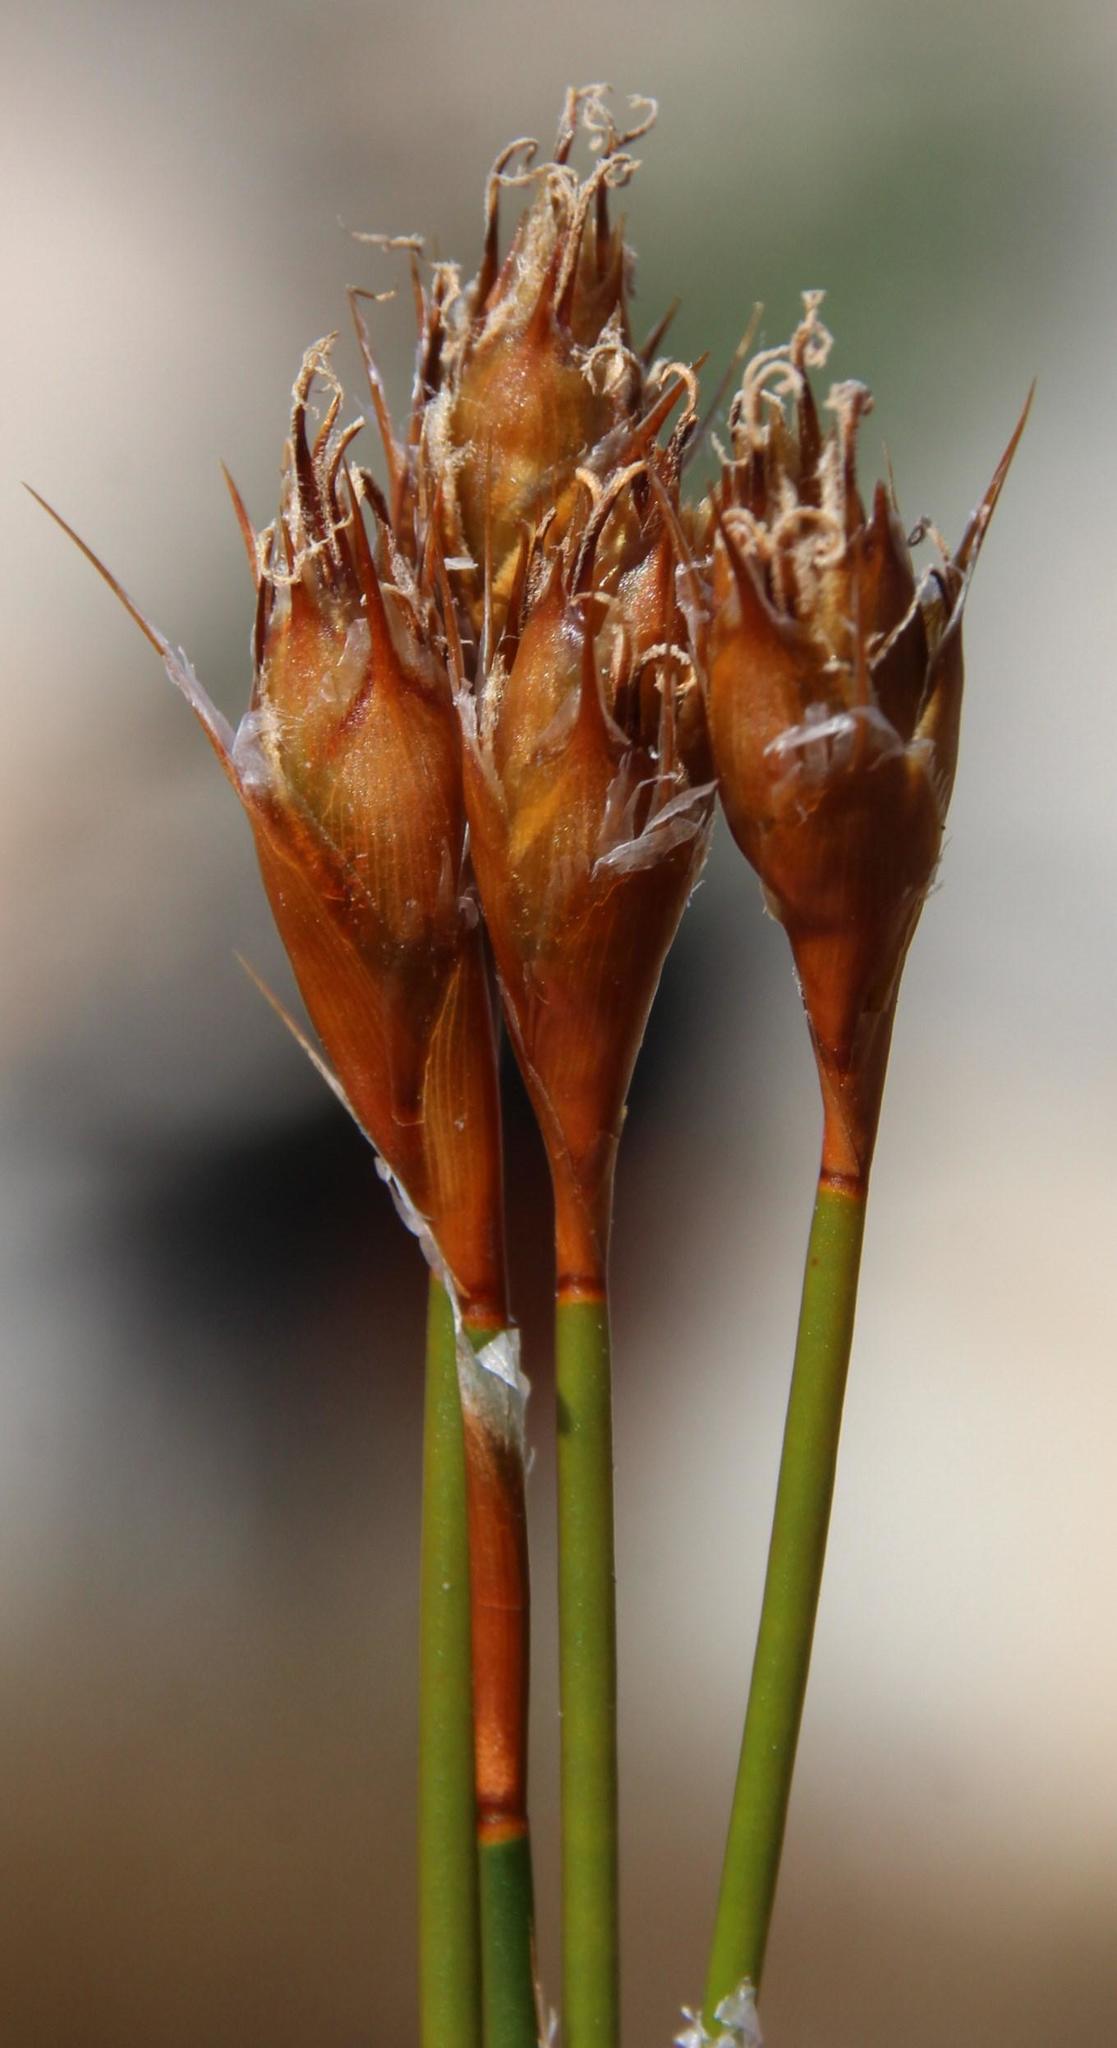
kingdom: Plantae
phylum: Tracheophyta
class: Liliopsida
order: Poales
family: Restionaceae
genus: Restio
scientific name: Restio virgeus
